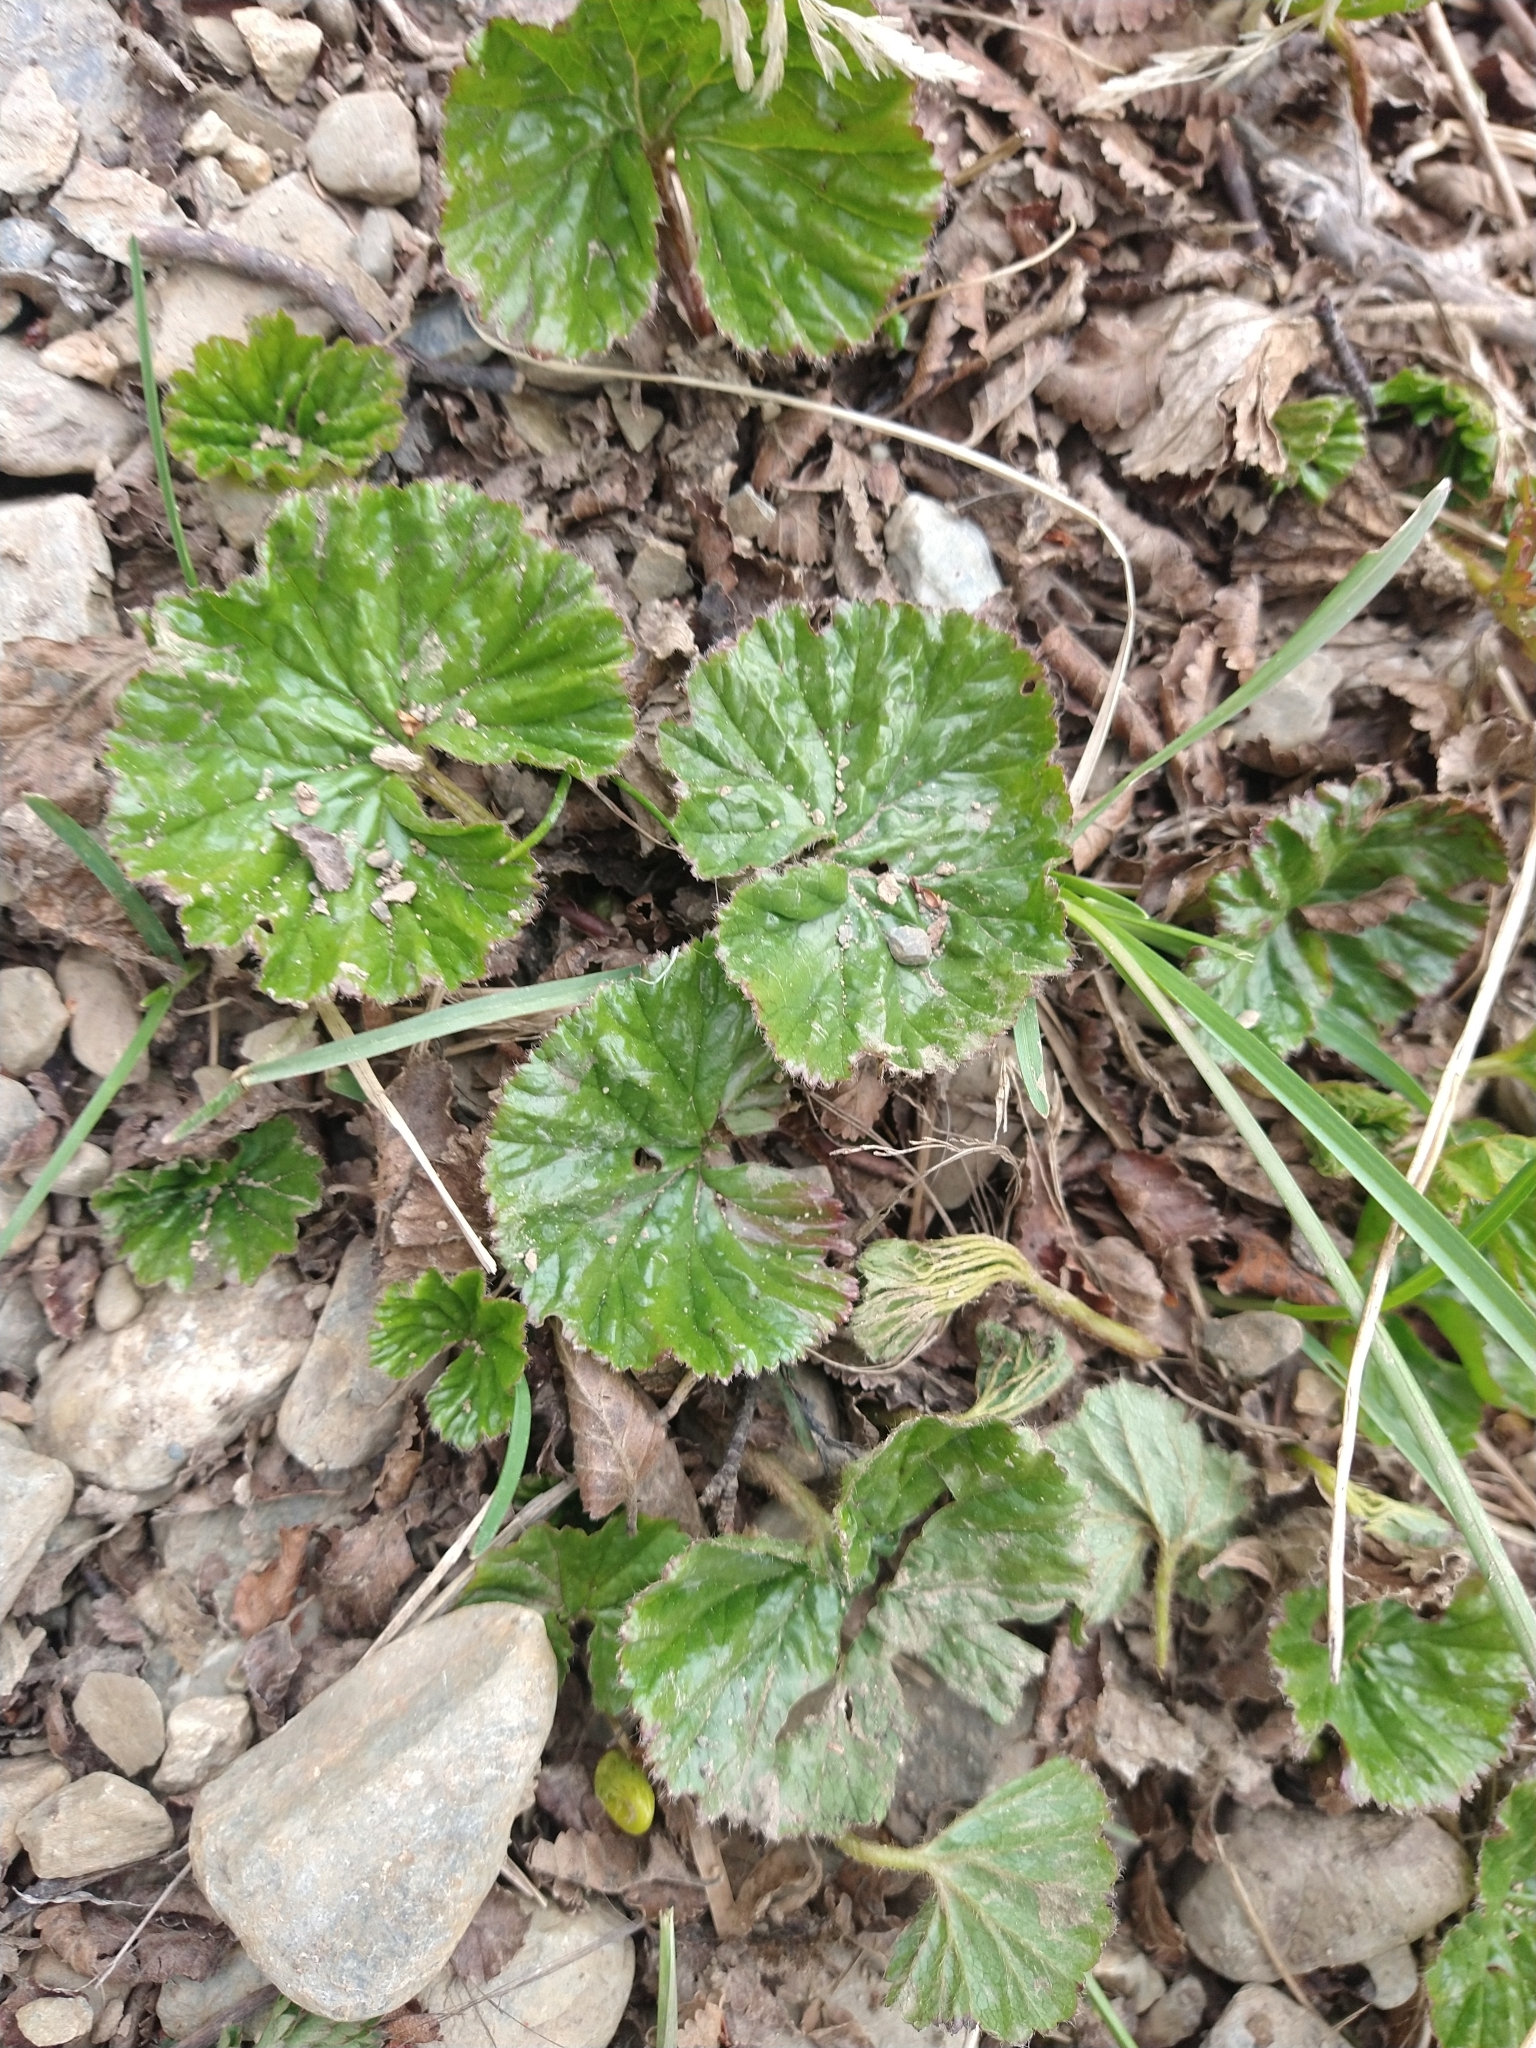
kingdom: Plantae
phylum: Tracheophyta
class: Magnoliopsida
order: Gunnerales
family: Gunneraceae
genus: Gunnera
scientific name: Gunnera magellanica
